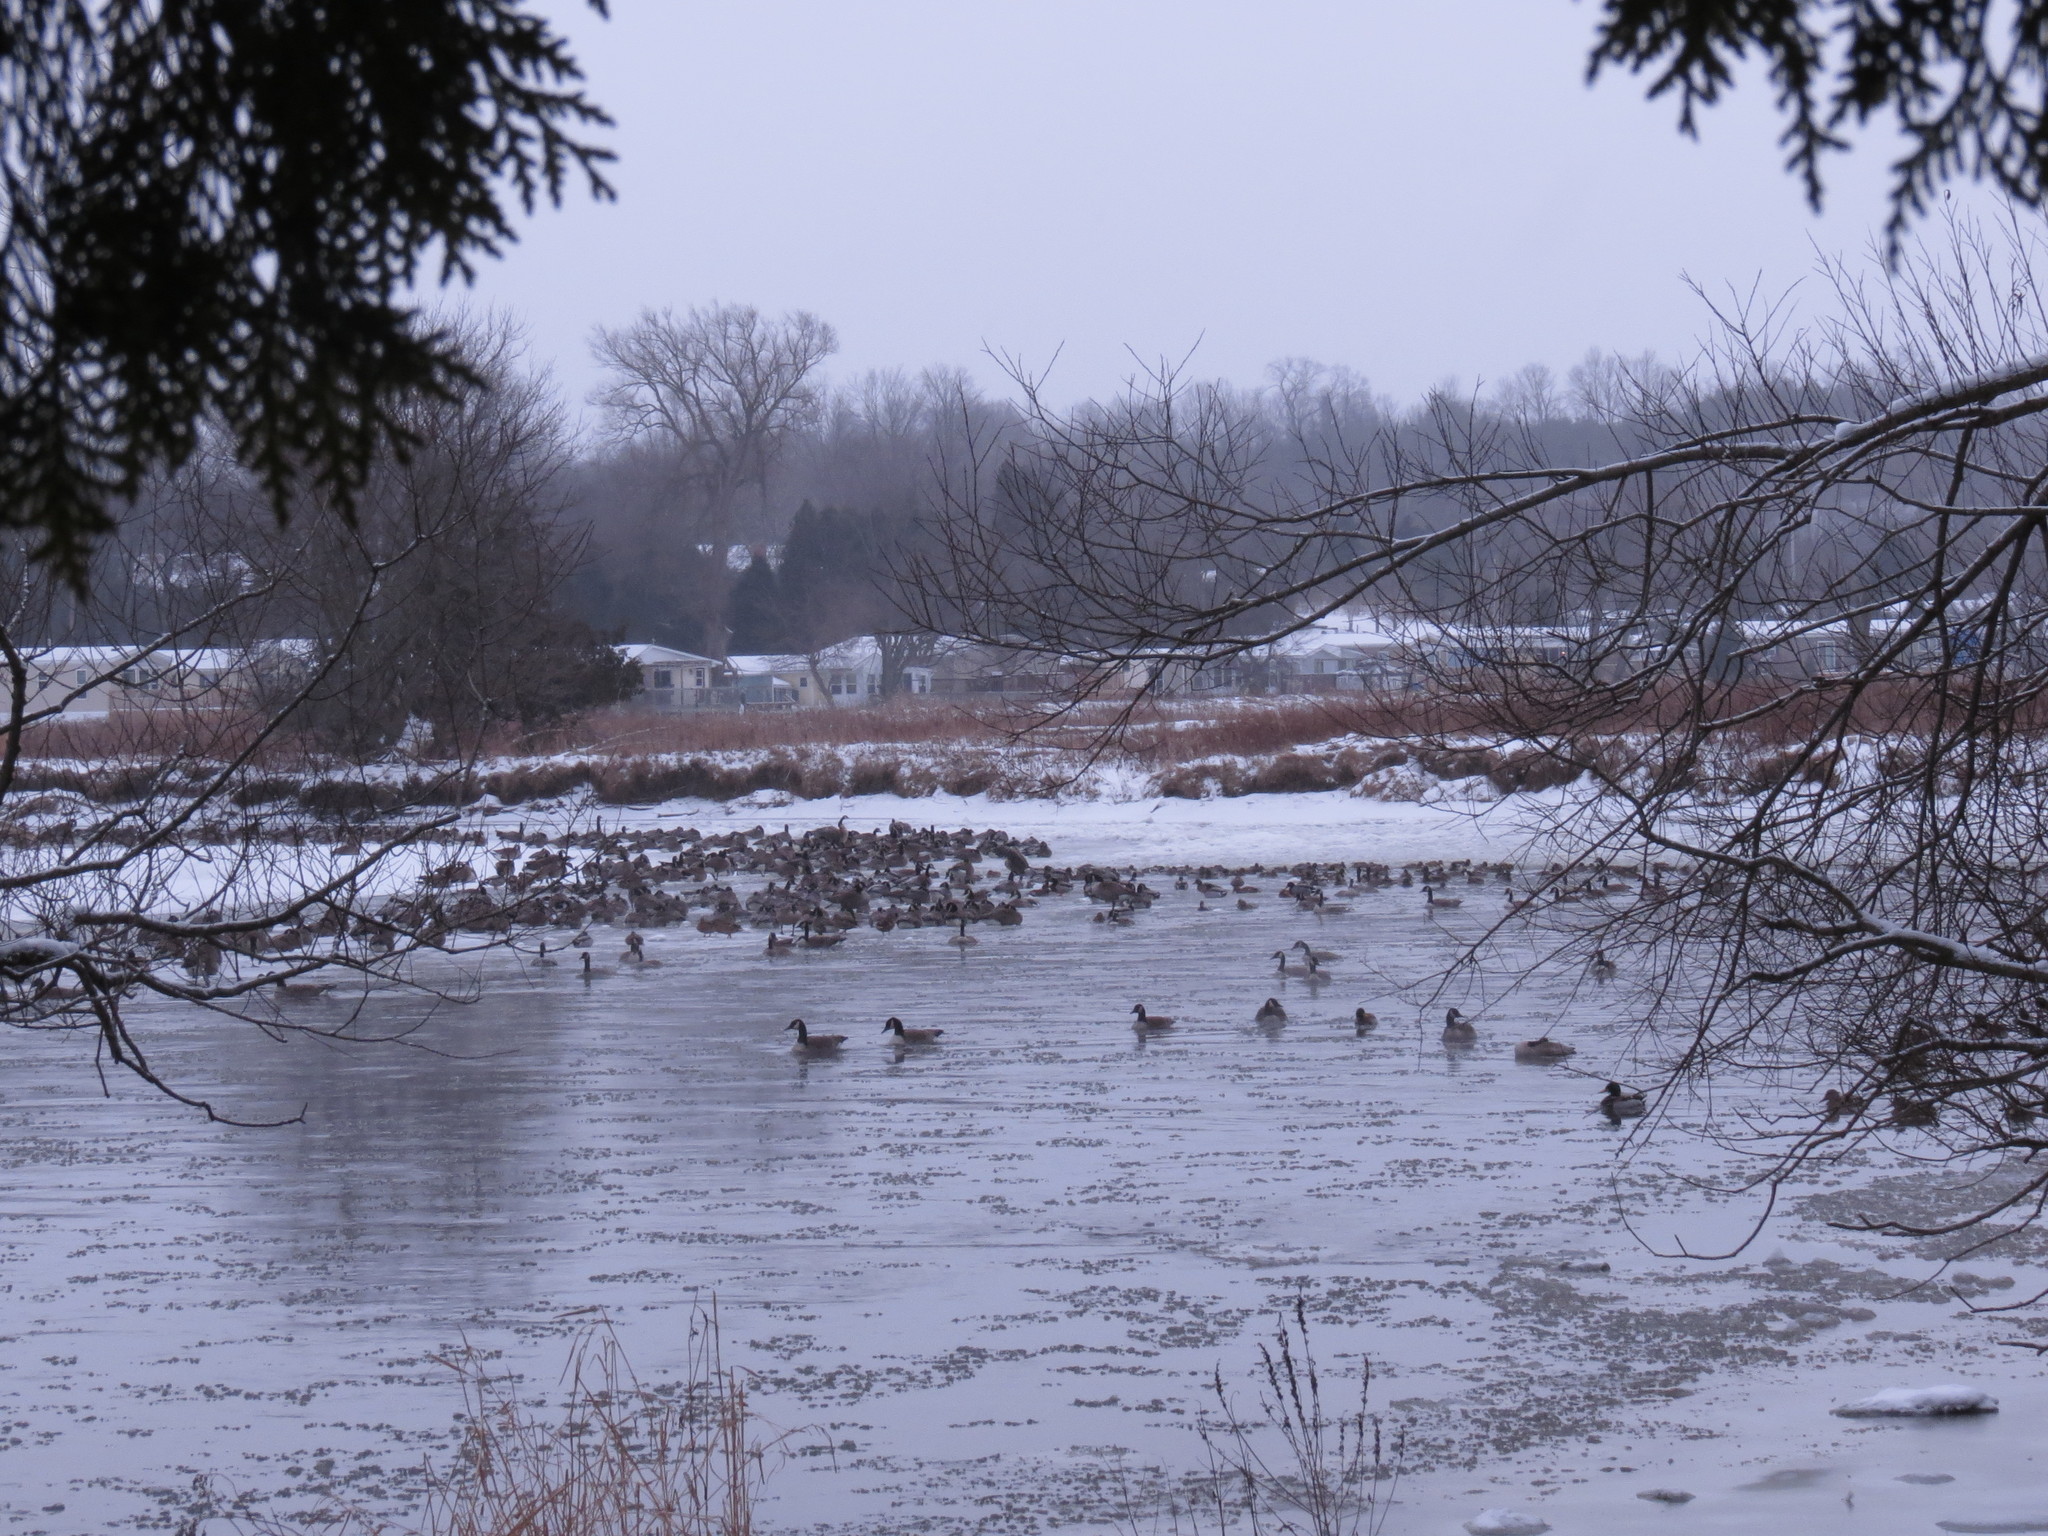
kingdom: Animalia
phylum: Chordata
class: Aves
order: Anseriformes
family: Anatidae
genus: Branta
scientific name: Branta canadensis
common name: Canada goose
